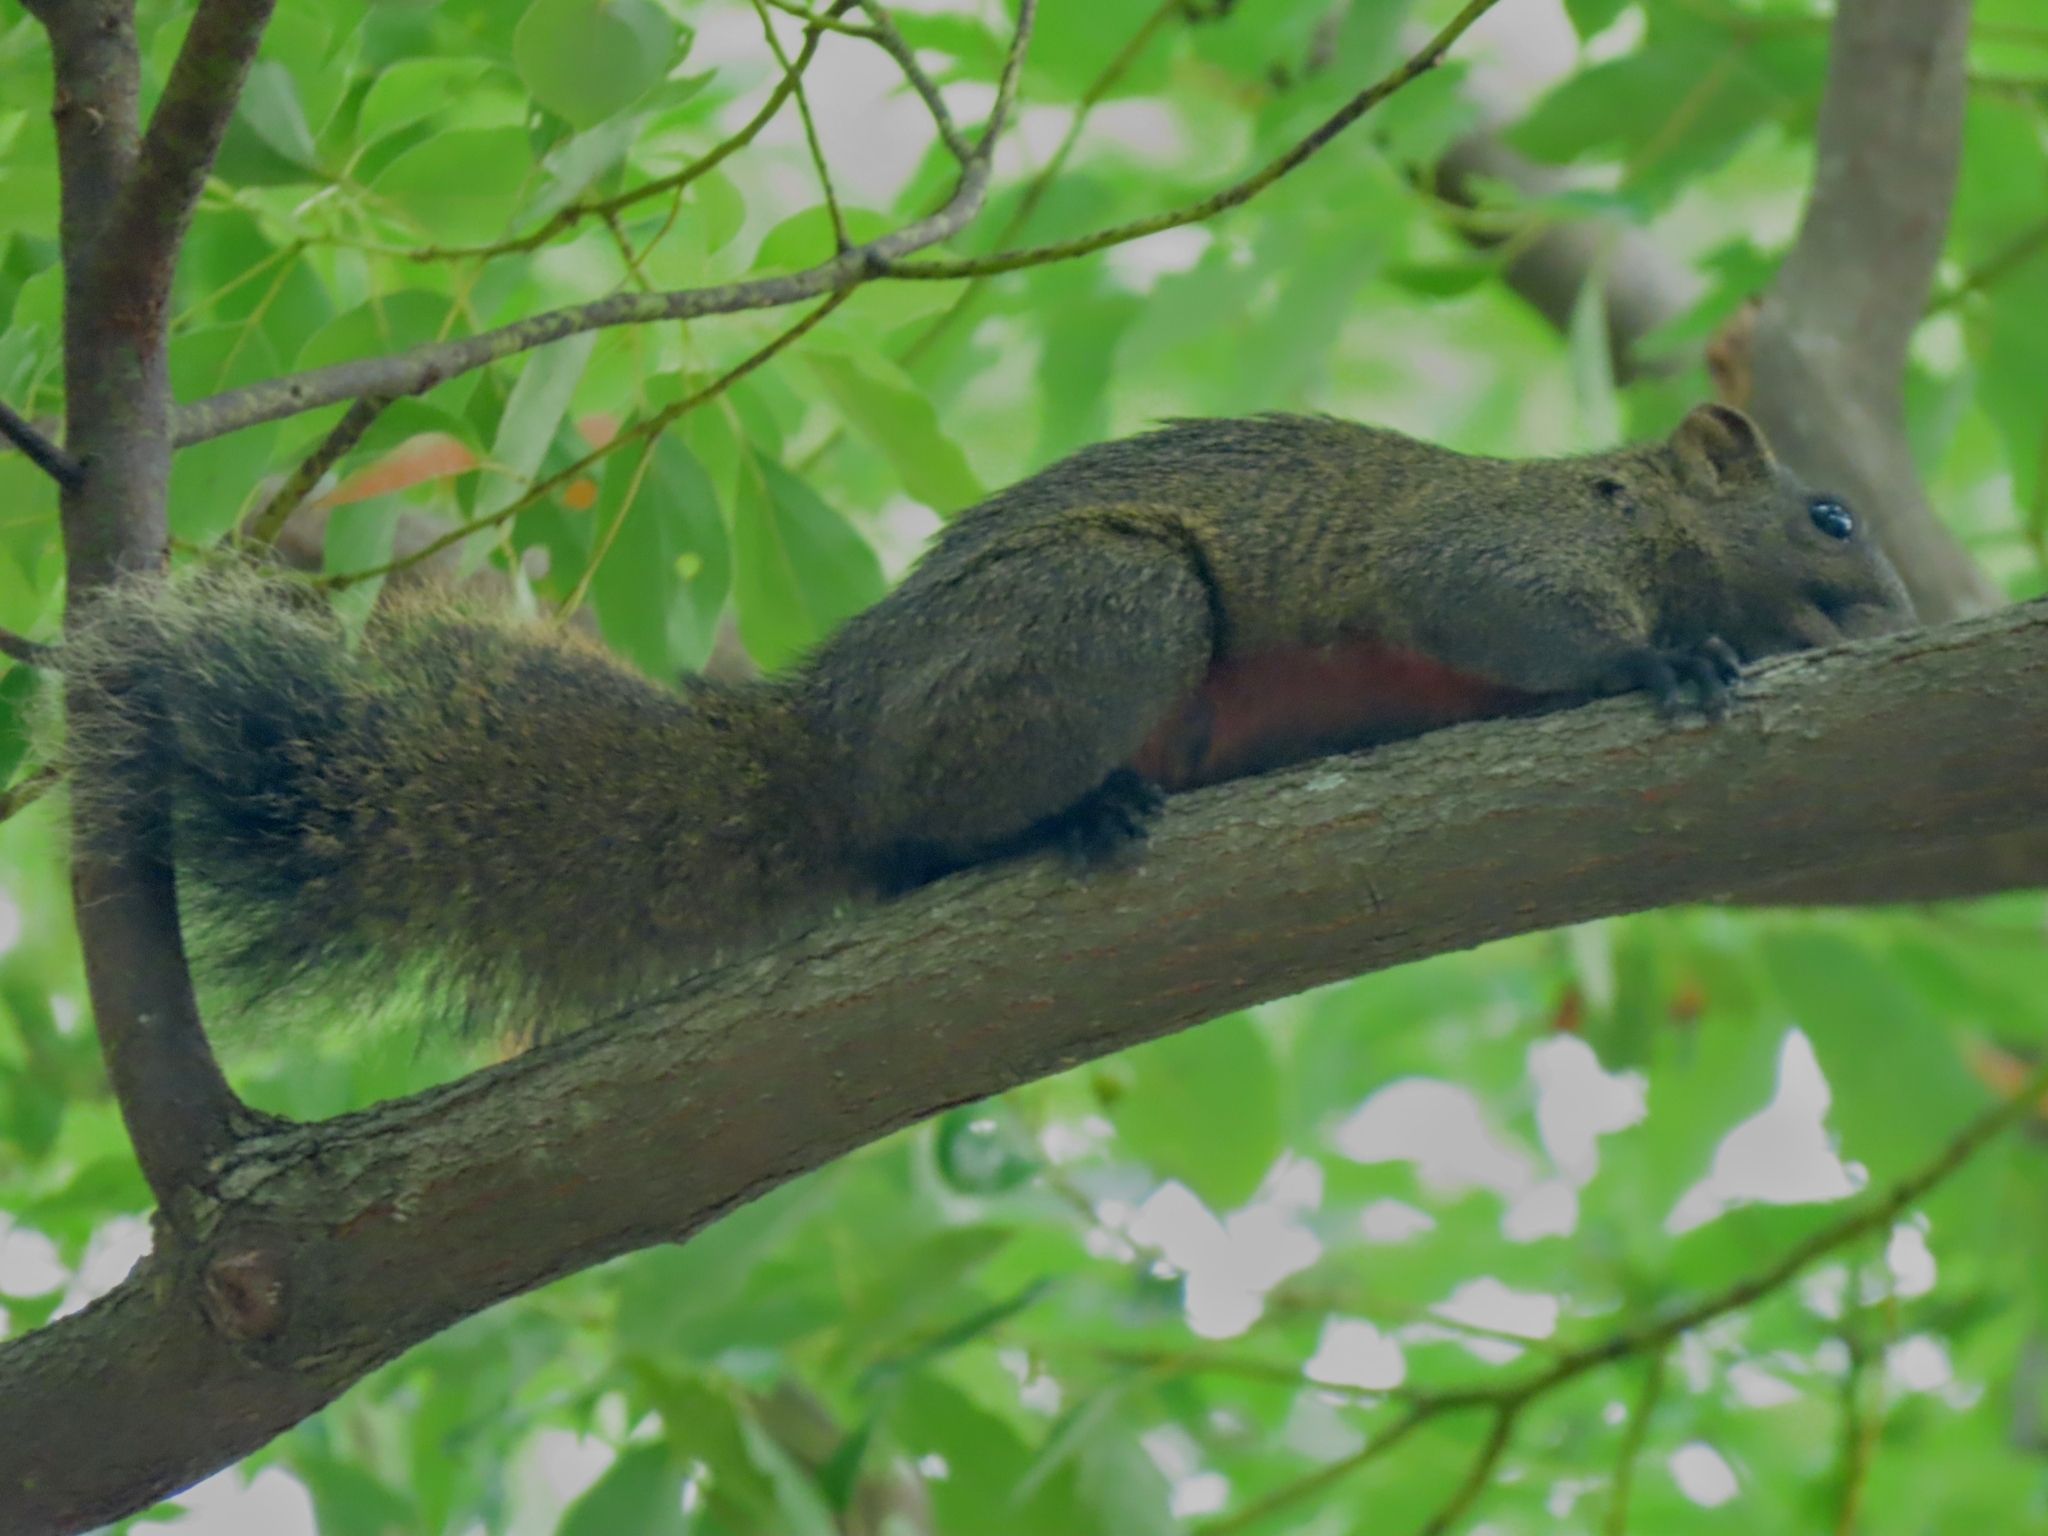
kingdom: Animalia
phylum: Chordata
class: Mammalia
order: Rodentia
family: Sciuridae
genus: Callosciurus
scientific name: Callosciurus erythraeus
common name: Pallas's squirrel
